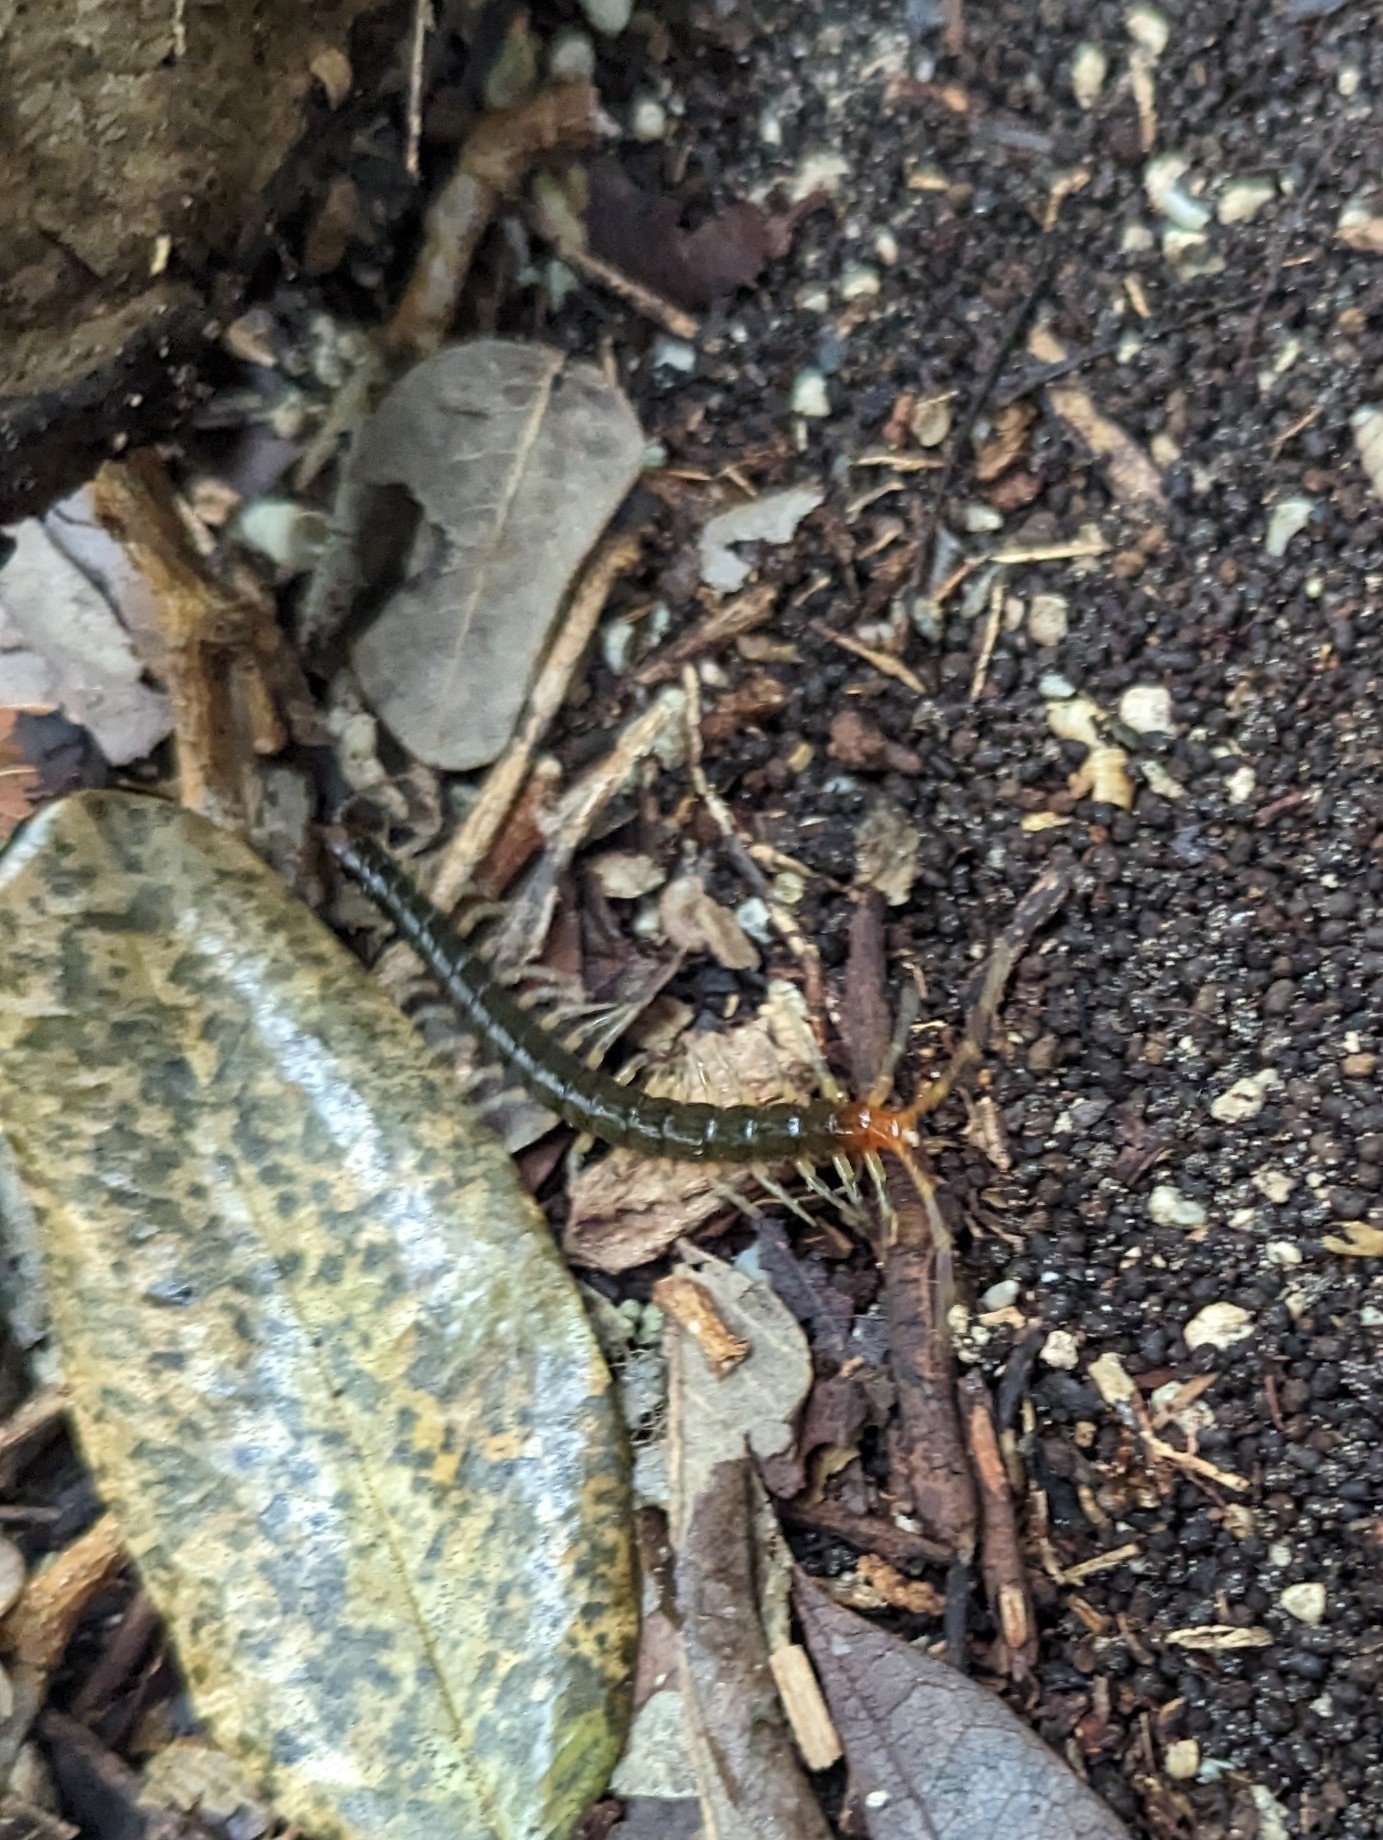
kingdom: Animalia
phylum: Arthropoda
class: Chilopoda
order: Scolopendromorpha
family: Scolopendridae
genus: Rhysida
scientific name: Rhysida longipes
